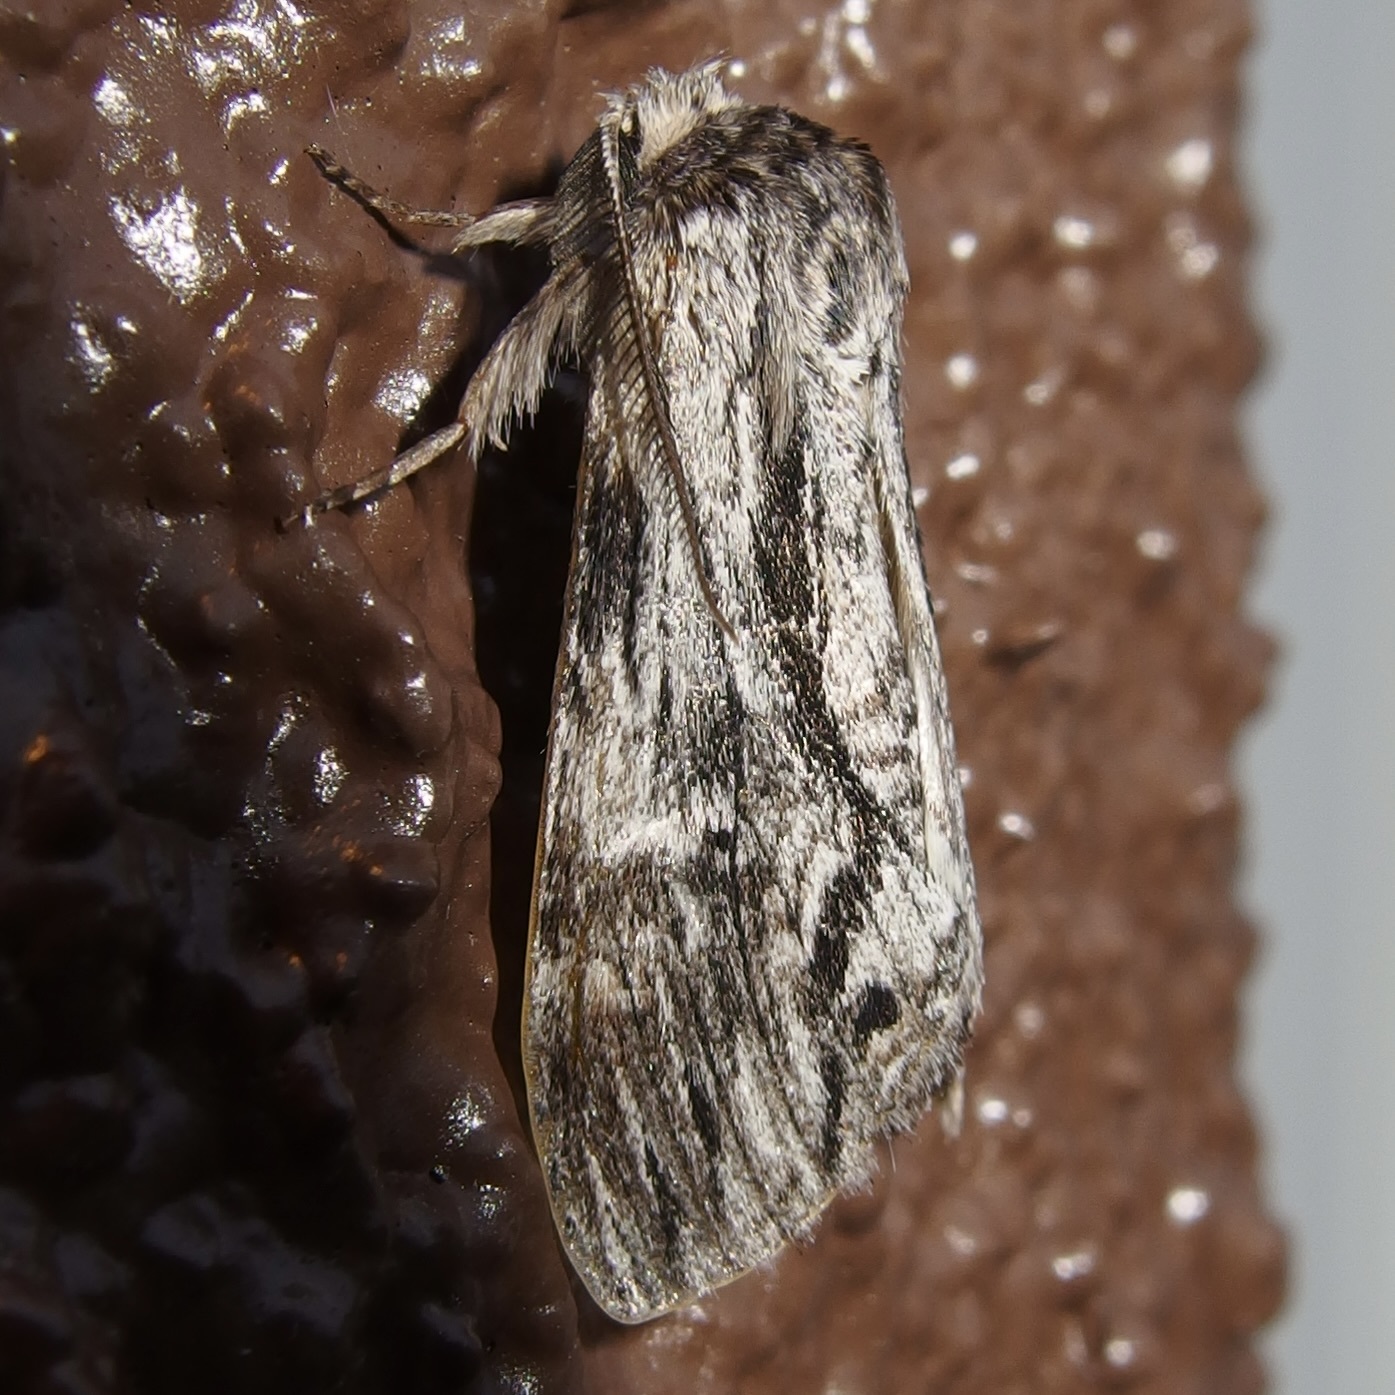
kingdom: Animalia
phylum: Arthropoda
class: Insecta
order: Lepidoptera
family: Notodontidae
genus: Notela
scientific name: Notela jaliscana
